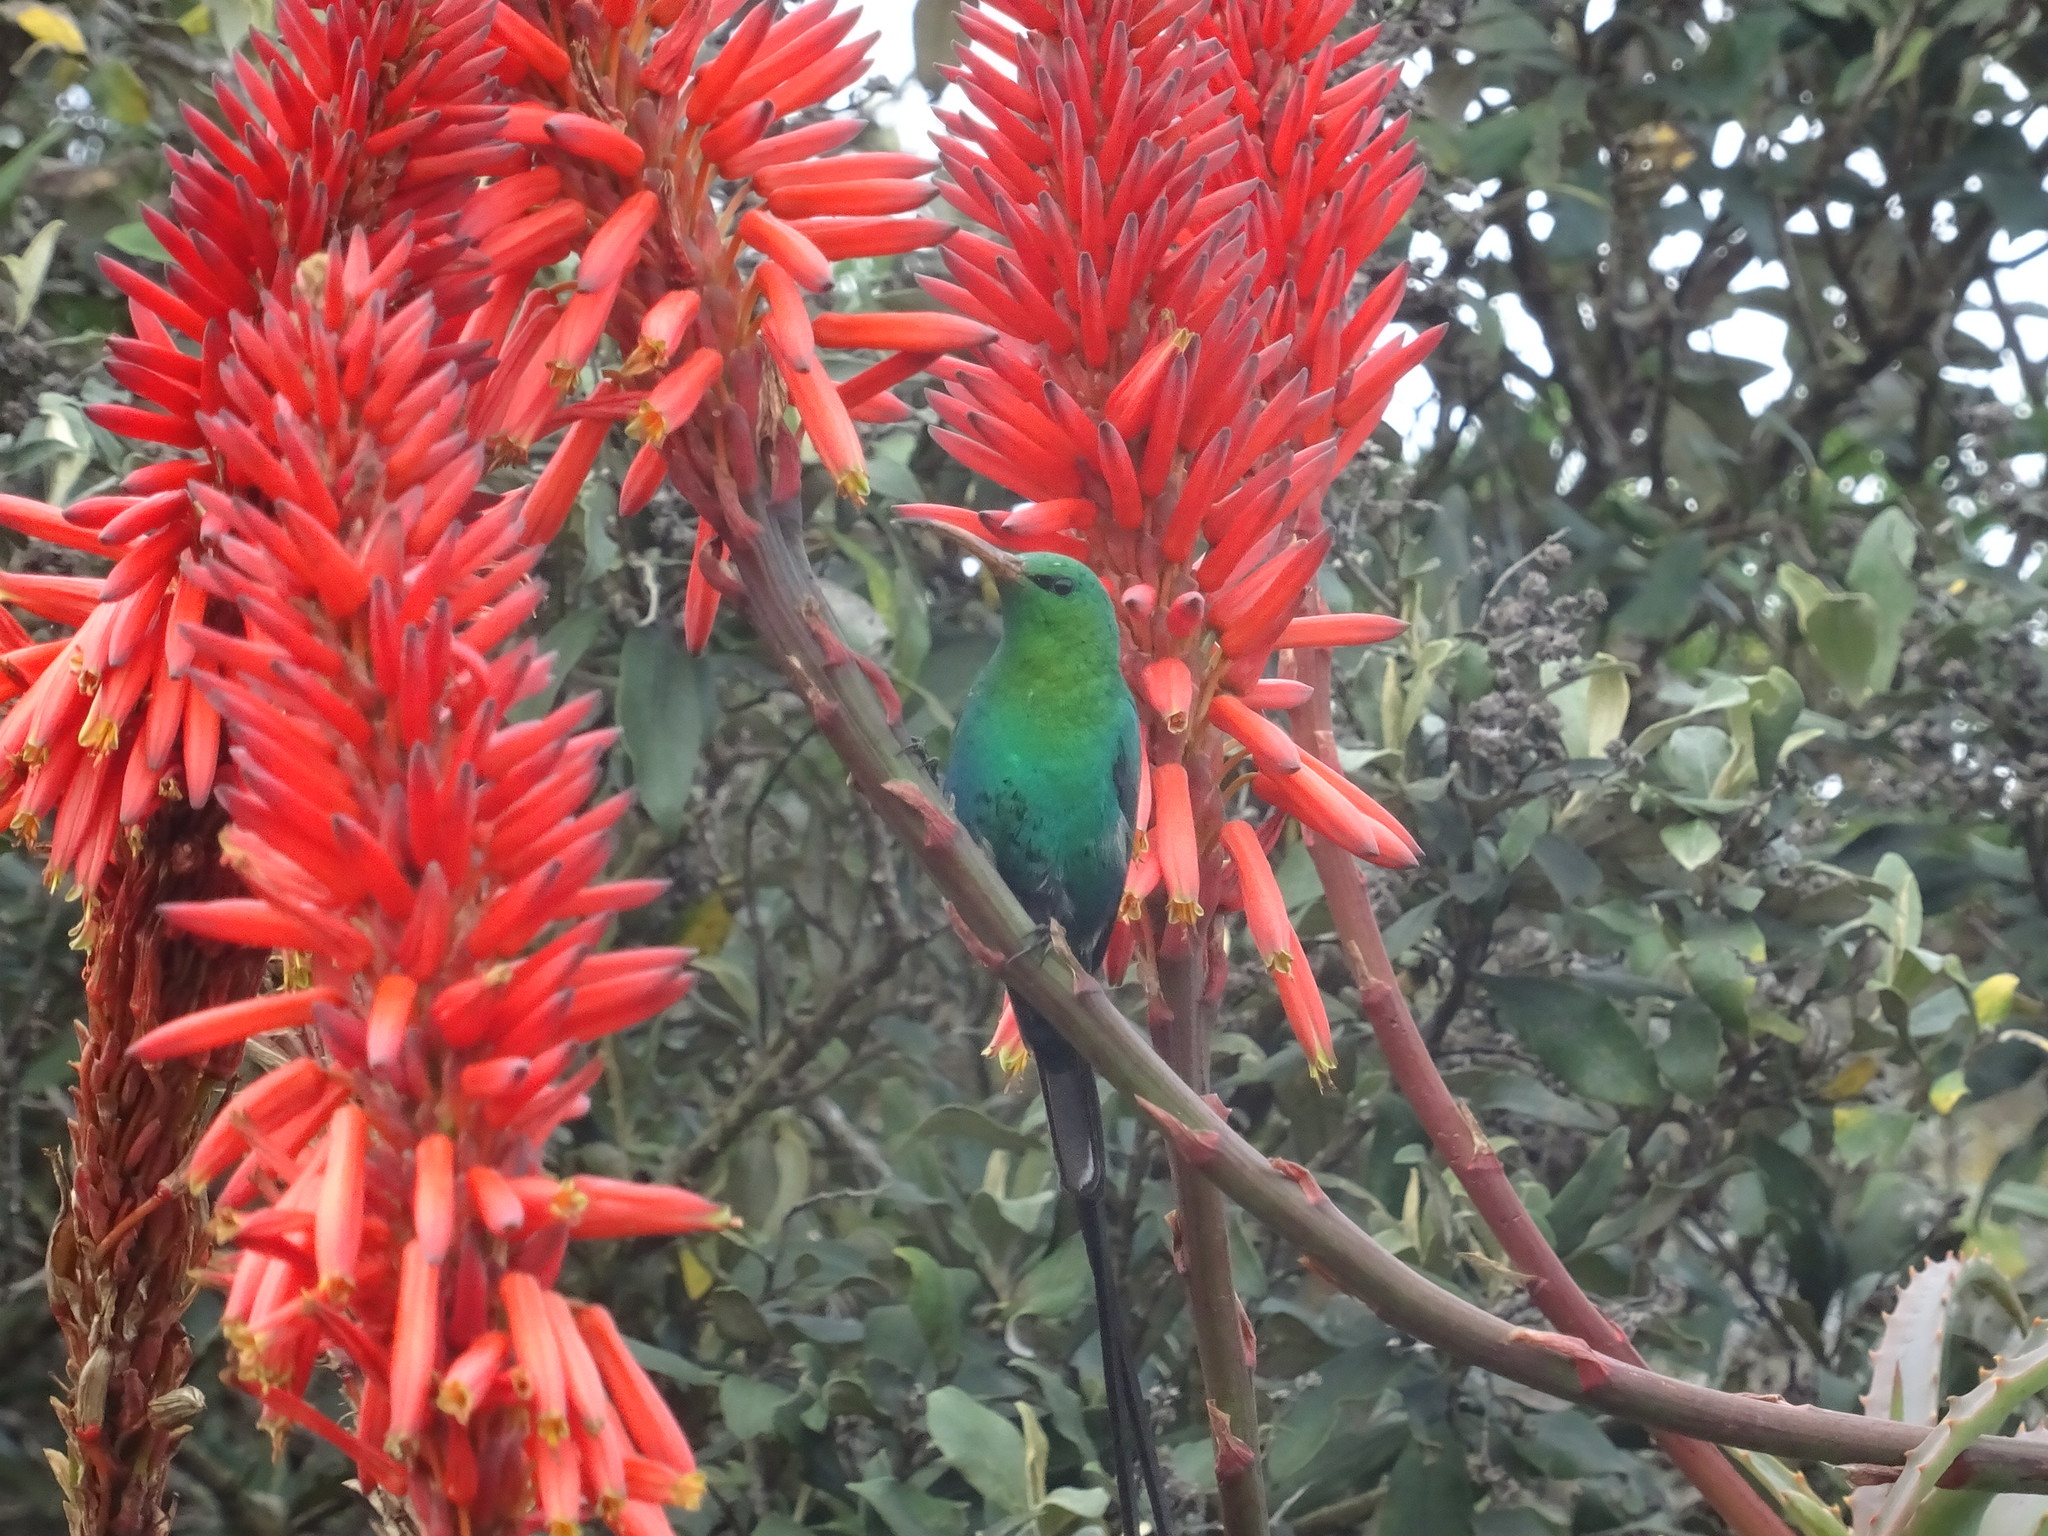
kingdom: Animalia
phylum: Chordata
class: Aves
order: Passeriformes
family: Nectariniidae
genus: Nectarinia
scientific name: Nectarinia famosa
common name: Malachite sunbird
